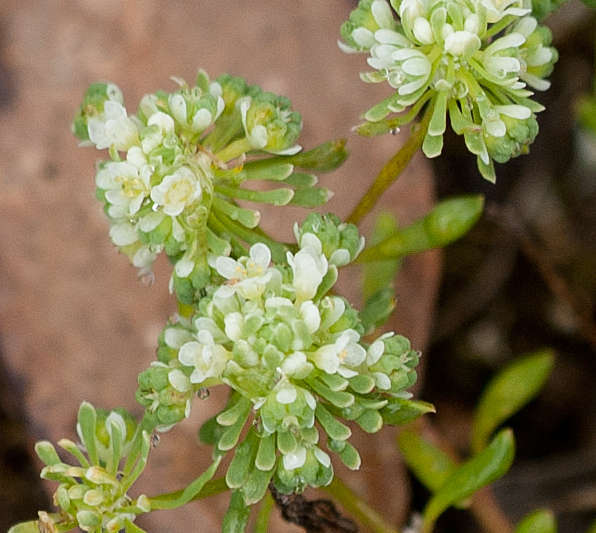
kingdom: Plantae
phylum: Tracheophyta
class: Magnoliopsida
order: Malpighiales
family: Phyllanthaceae
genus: Poranthera
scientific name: Poranthera microphylla
